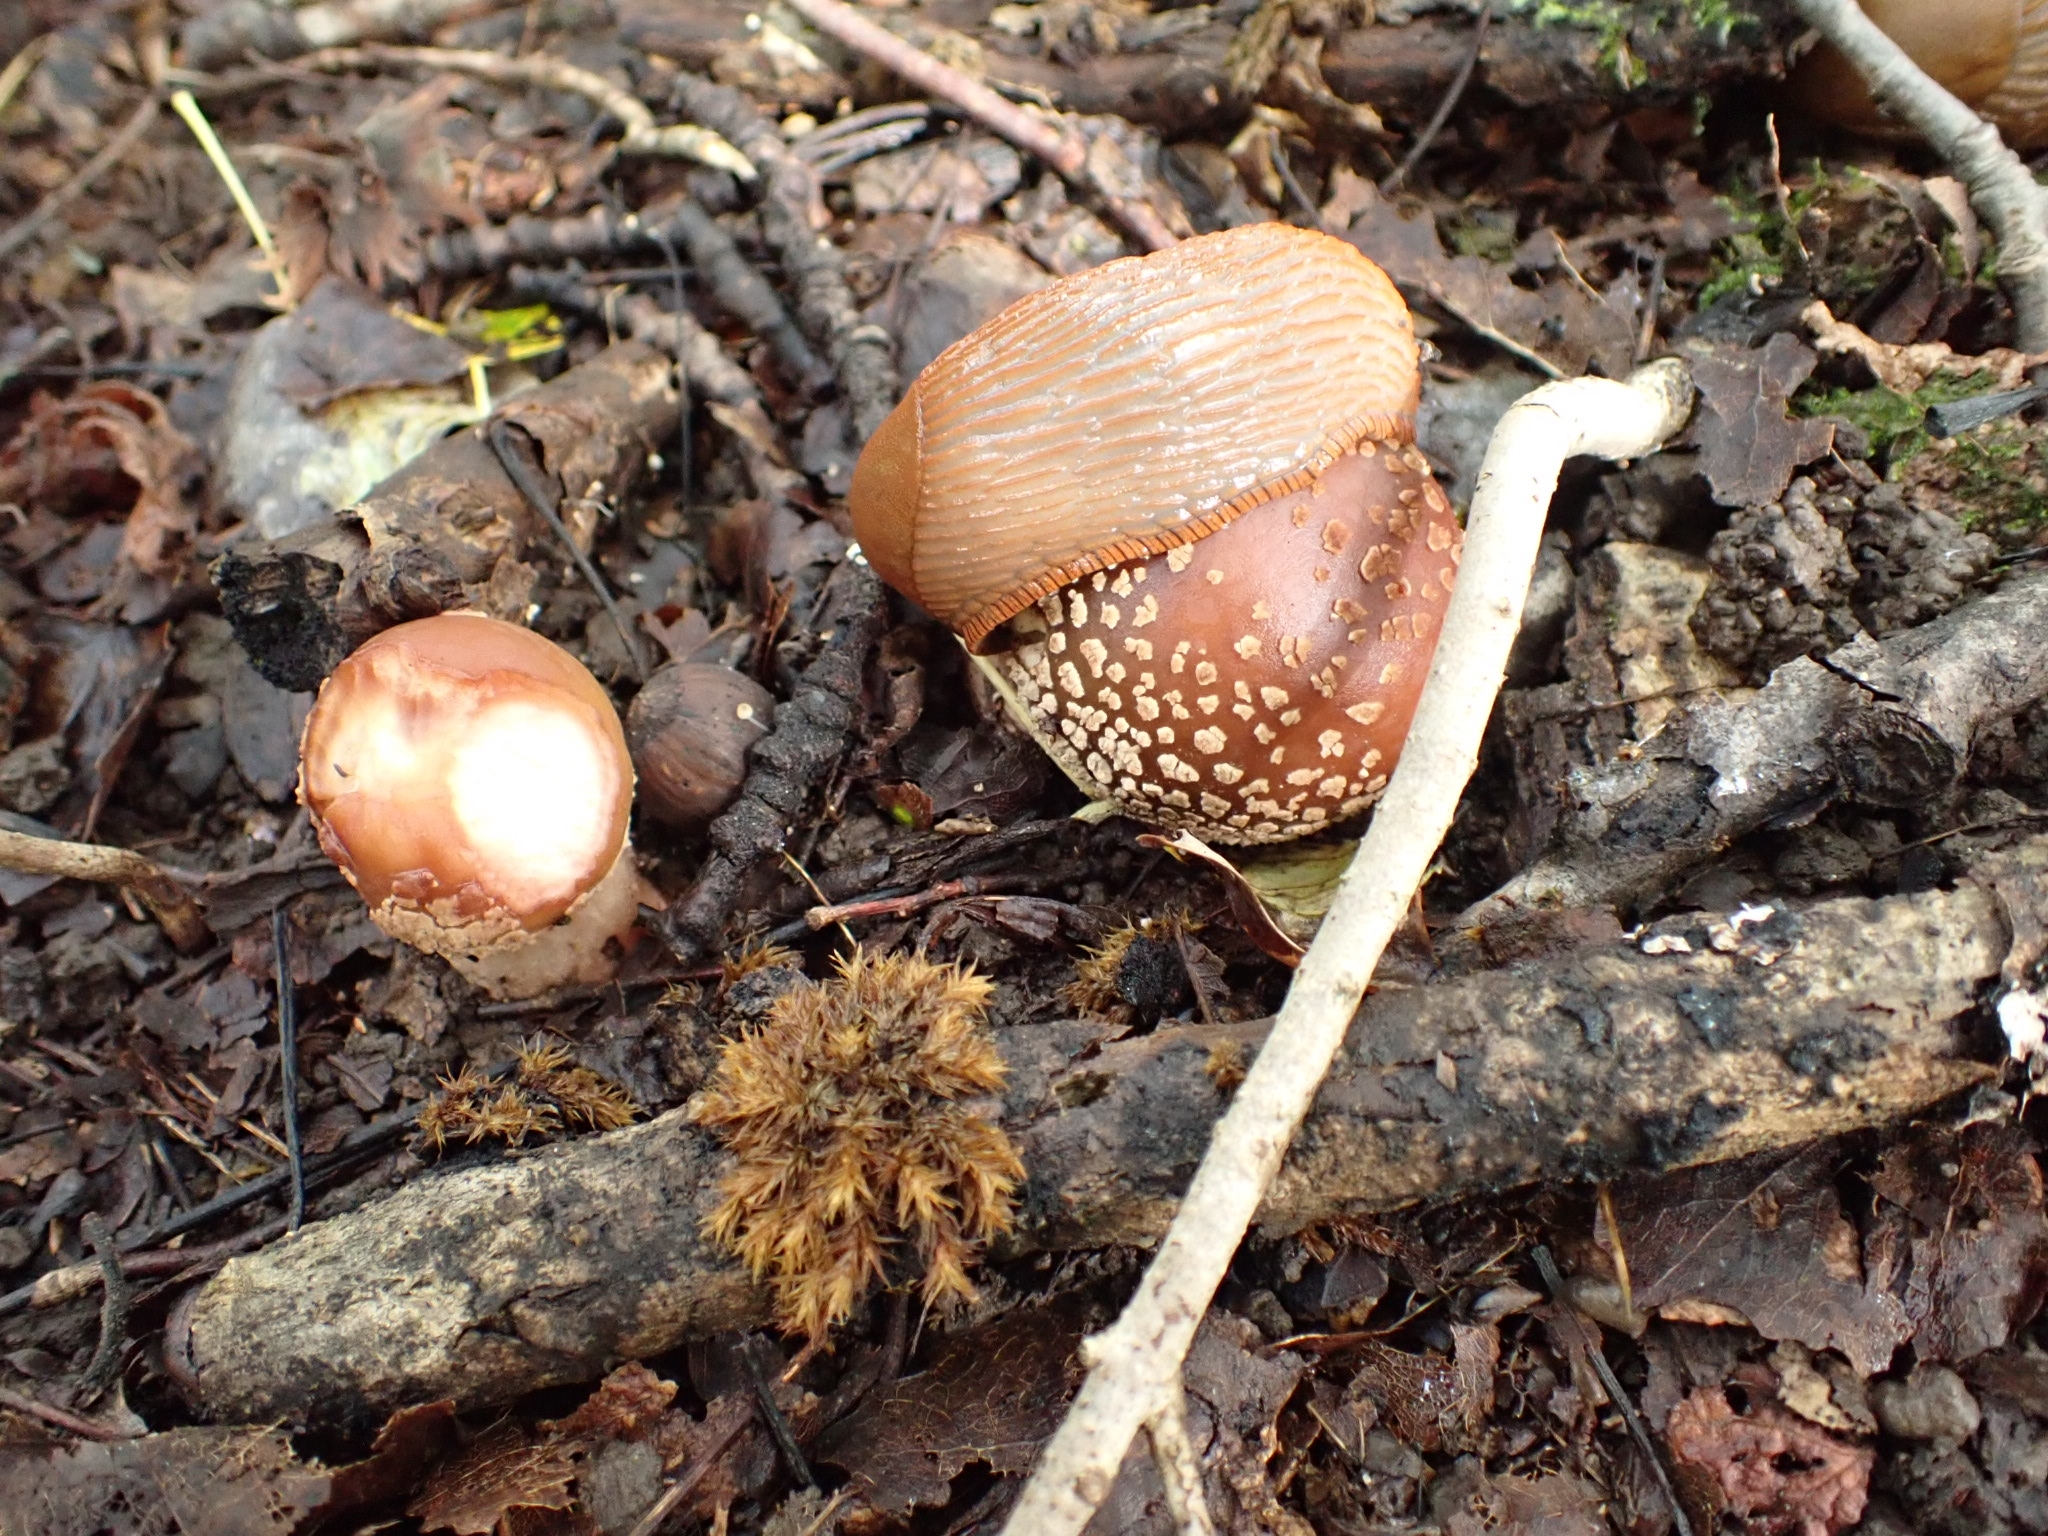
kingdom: Fungi
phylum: Basidiomycota
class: Agaricomycetes
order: Agaricales
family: Amanitaceae
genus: Amanita
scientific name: Amanita rubescens
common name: Blusher
